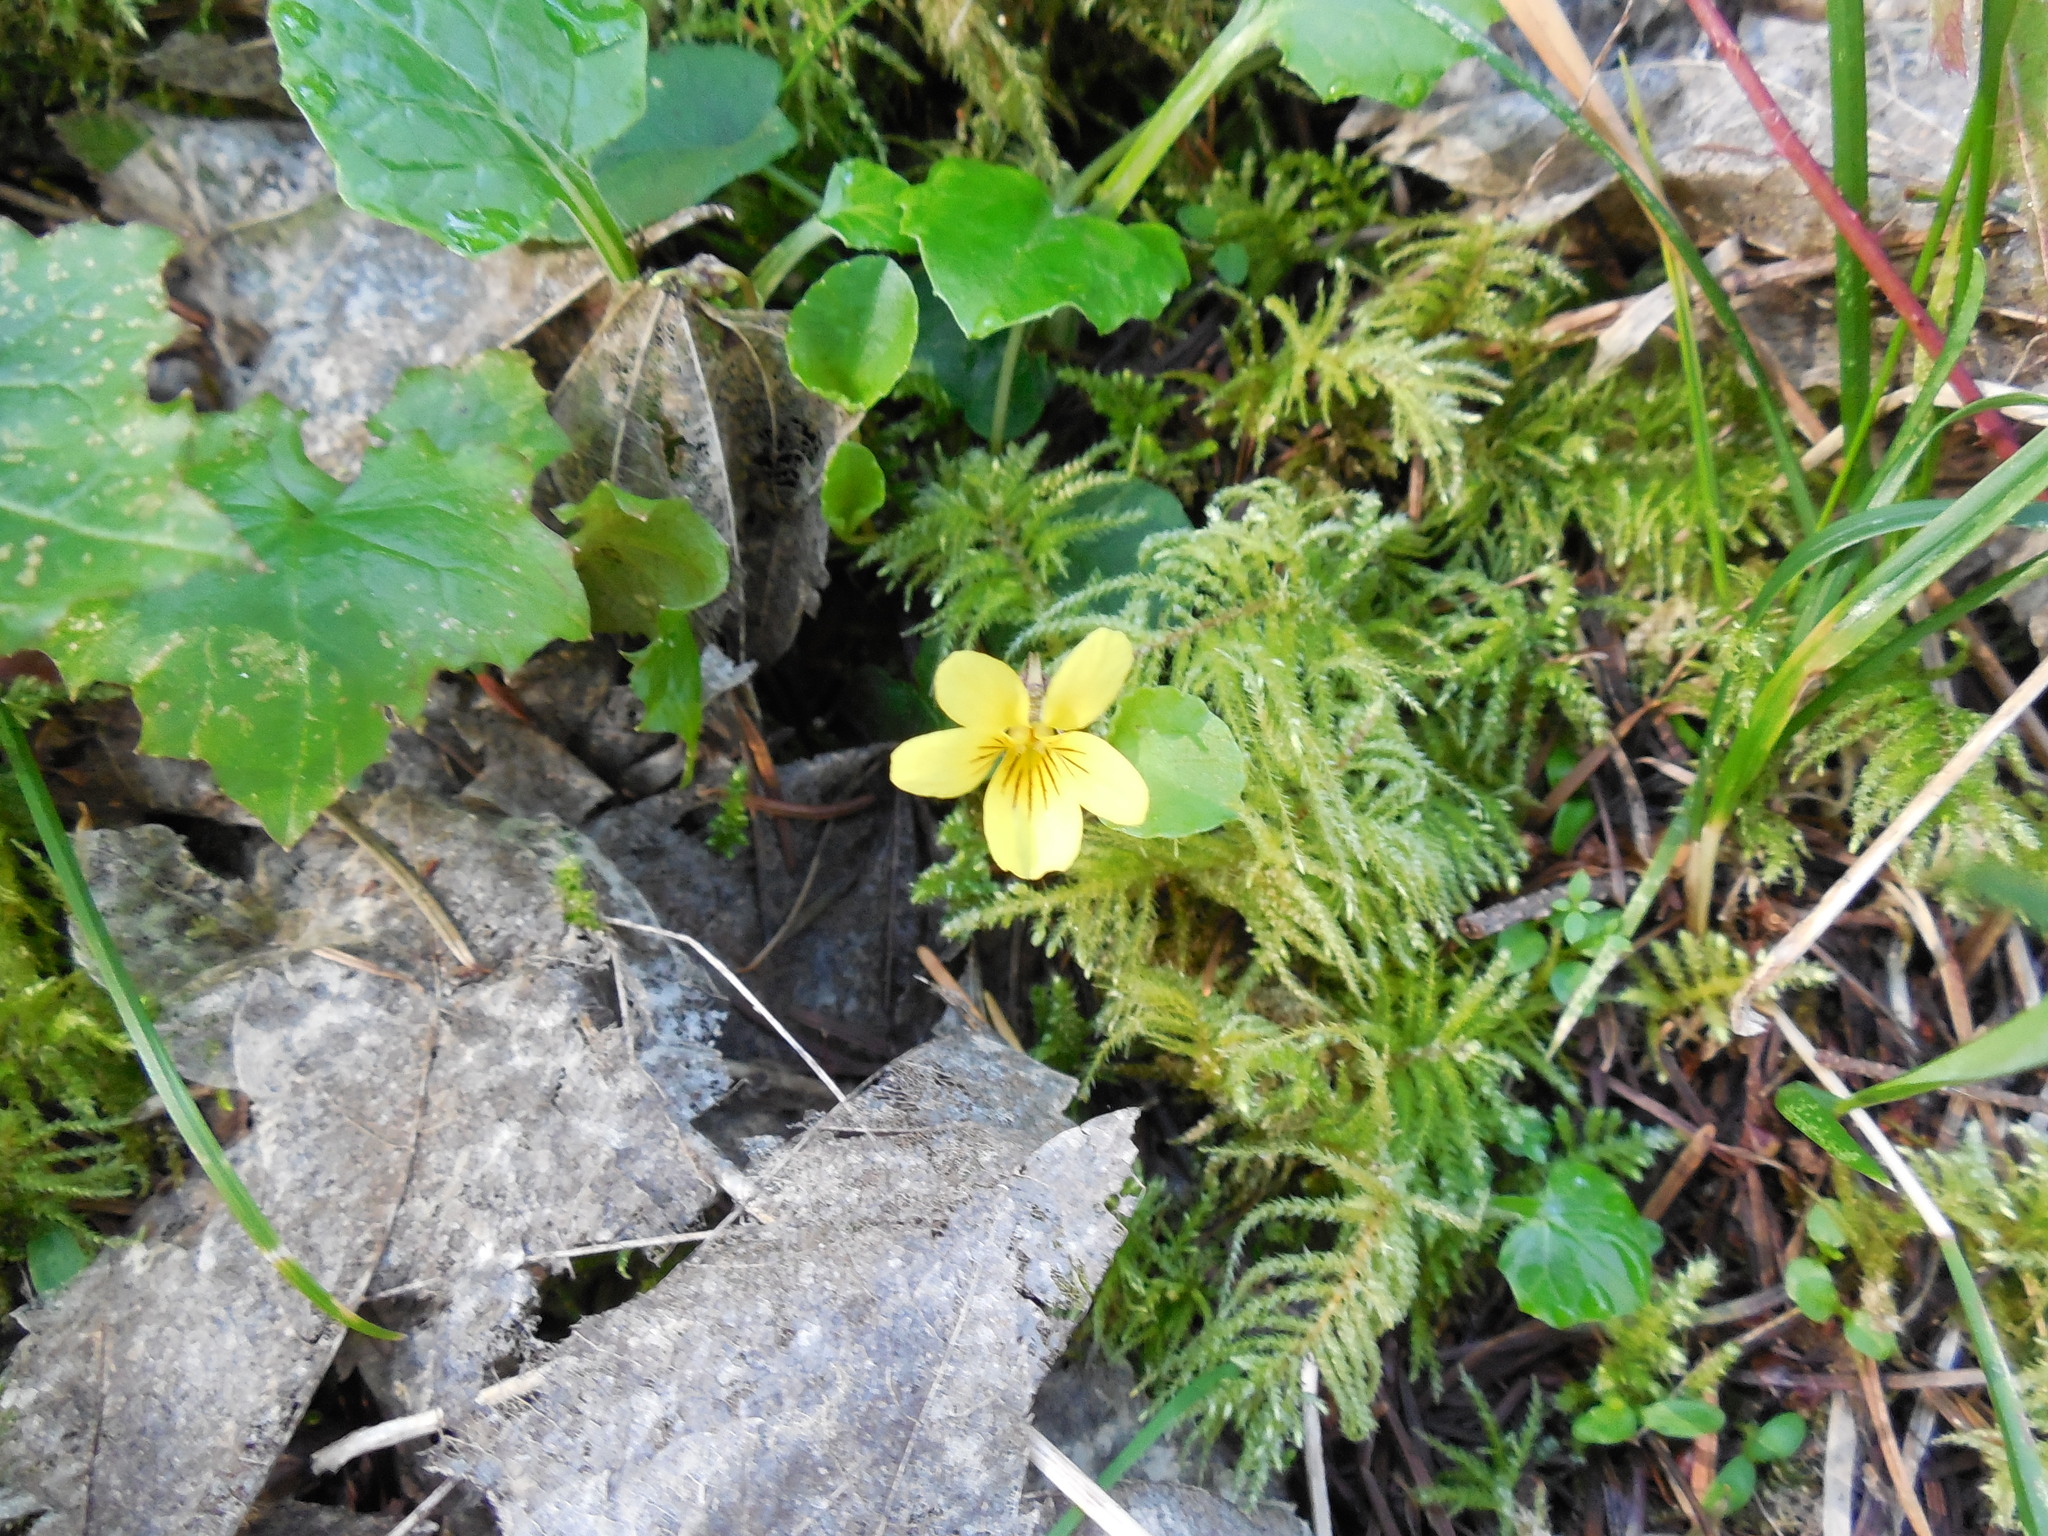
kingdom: Plantae
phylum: Tracheophyta
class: Magnoliopsida
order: Malpighiales
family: Violaceae
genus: Viola
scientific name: Viola sempervirens
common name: Evergreen violet
